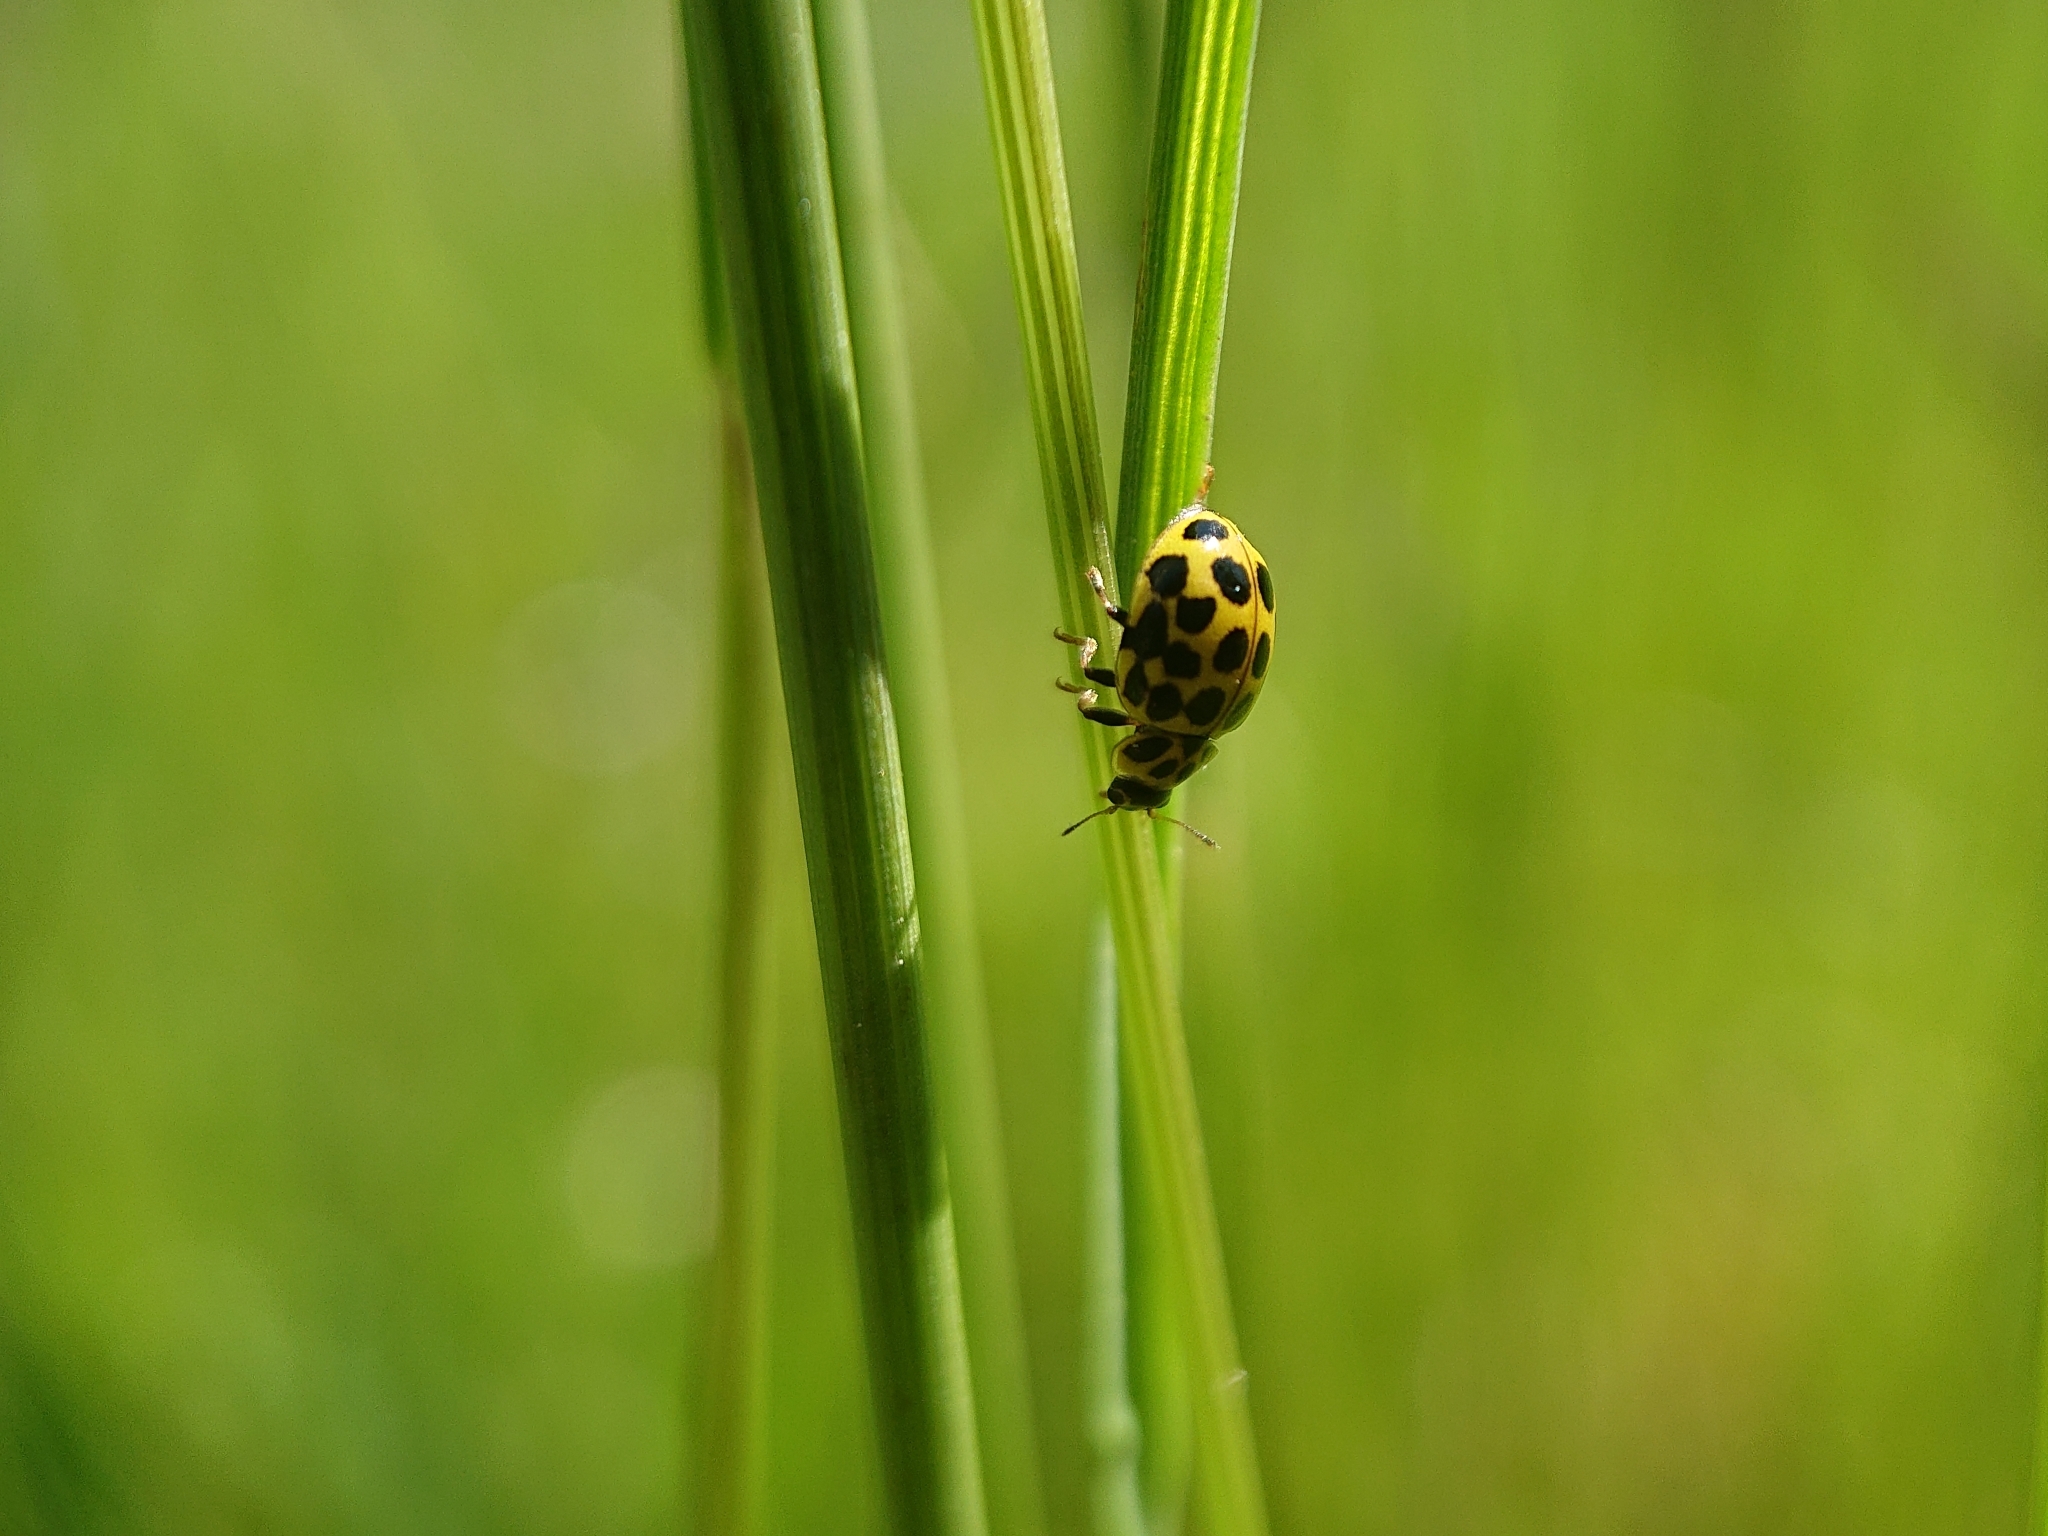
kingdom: Animalia
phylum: Arthropoda
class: Insecta
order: Coleoptera
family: Coccinellidae
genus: Psyllobora
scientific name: Psyllobora vigintiduopunctata
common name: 22-spot ladybird
